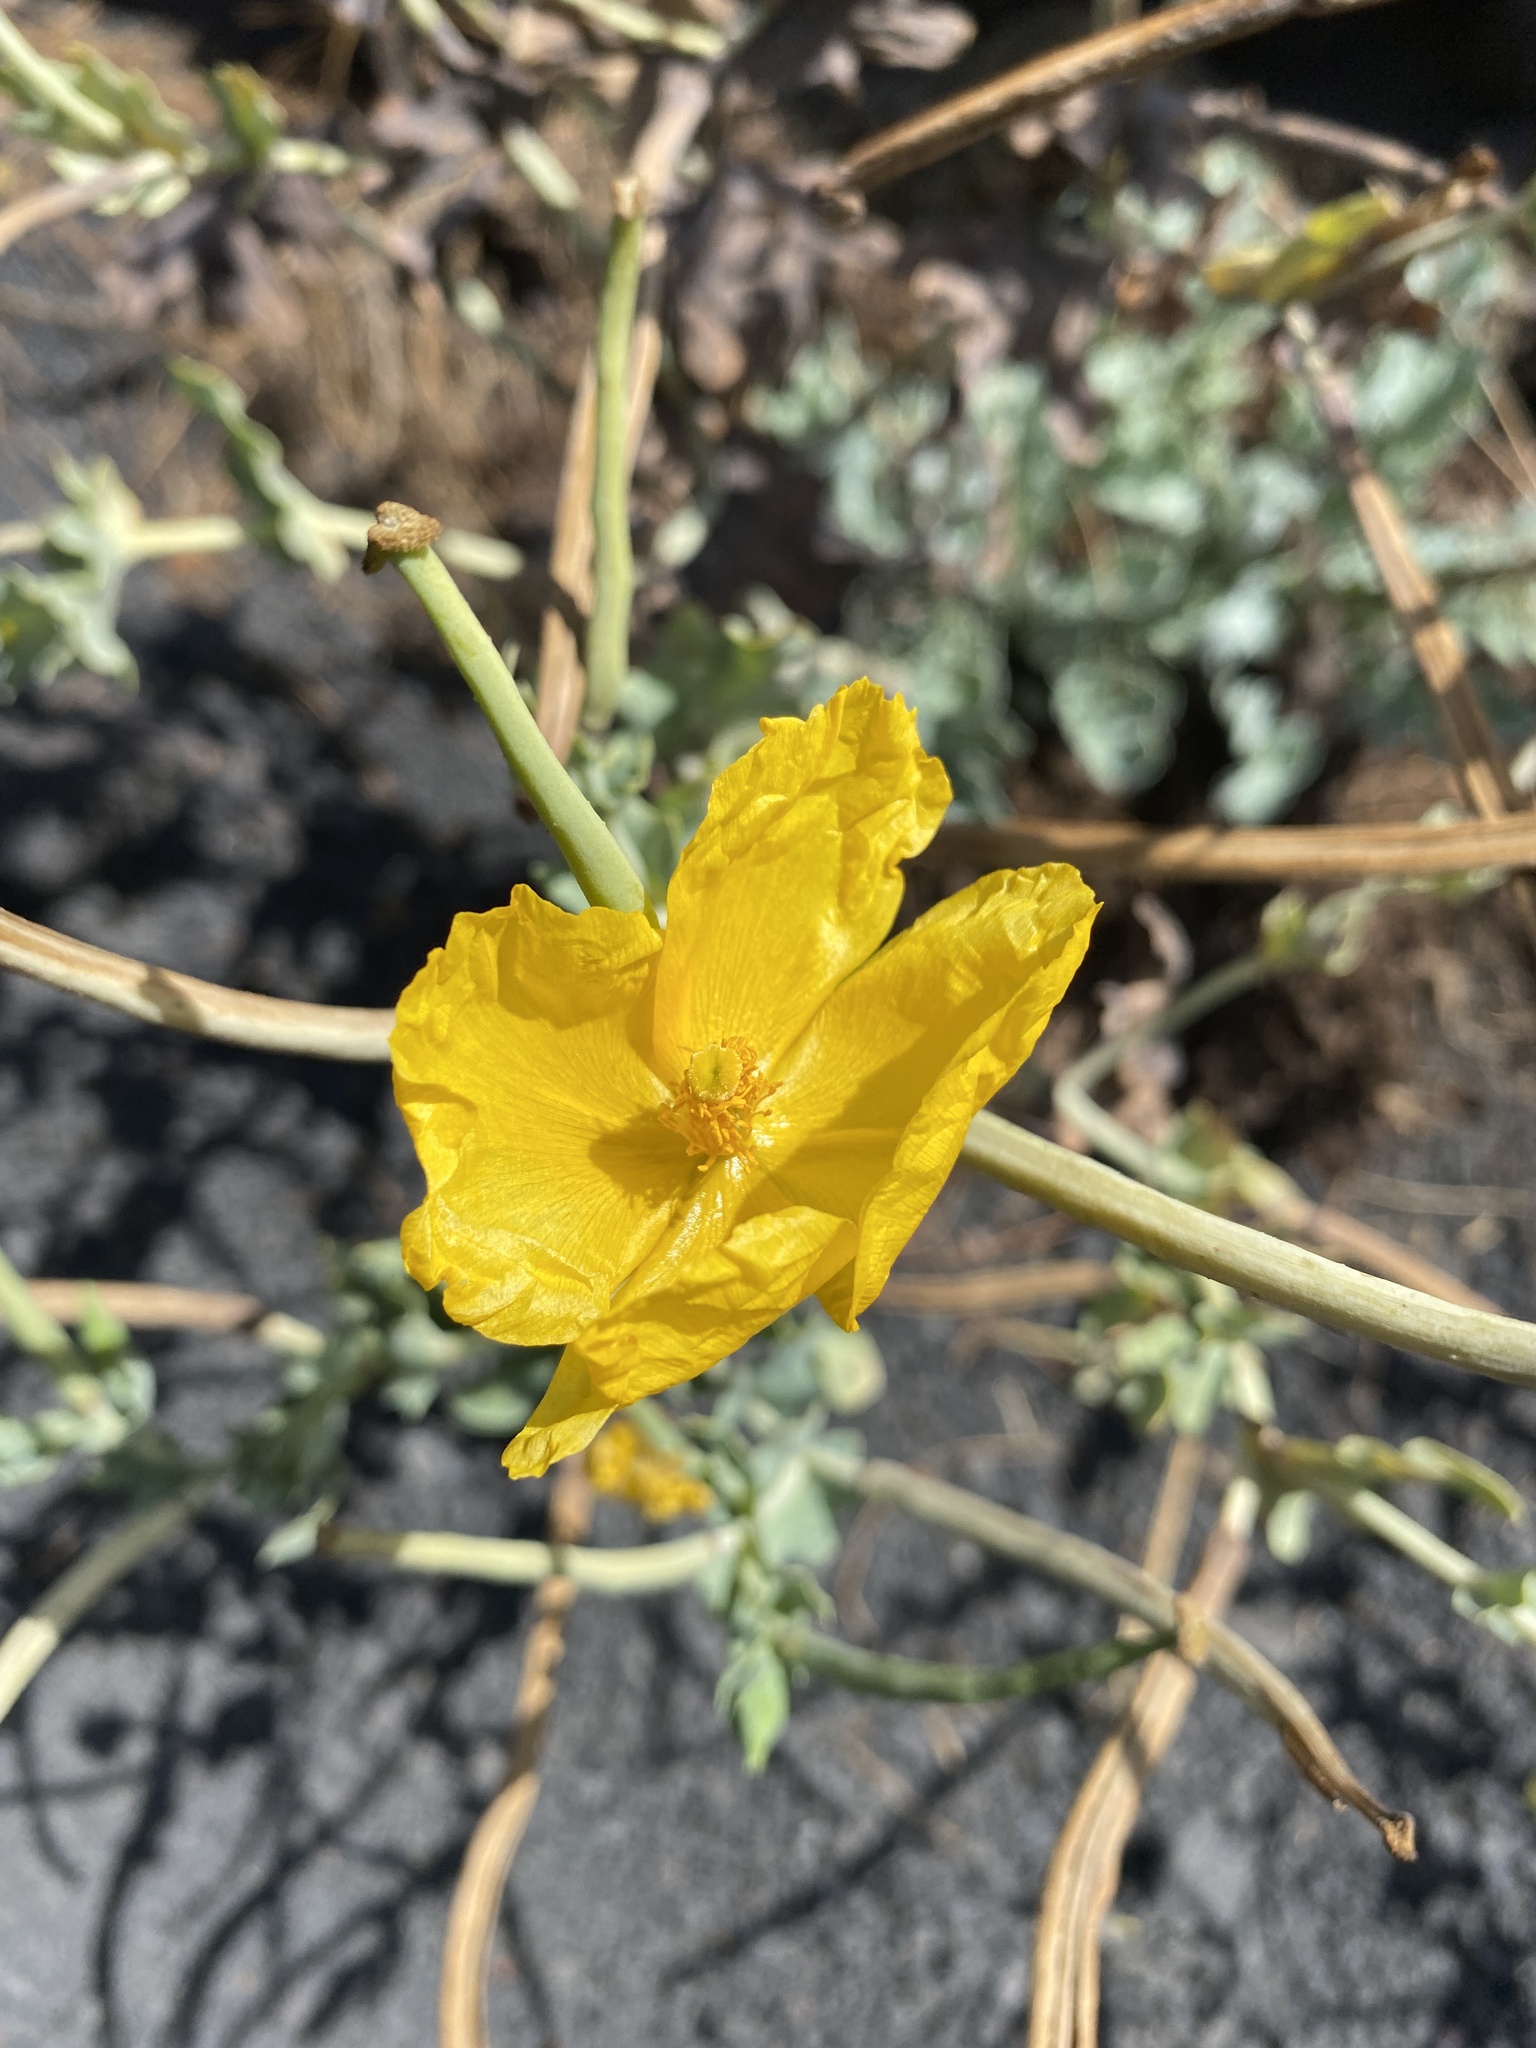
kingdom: Plantae
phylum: Tracheophyta
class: Magnoliopsida
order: Ranunculales
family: Papaveraceae
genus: Glaucium
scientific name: Glaucium flavum
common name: Yellow horned-poppy
